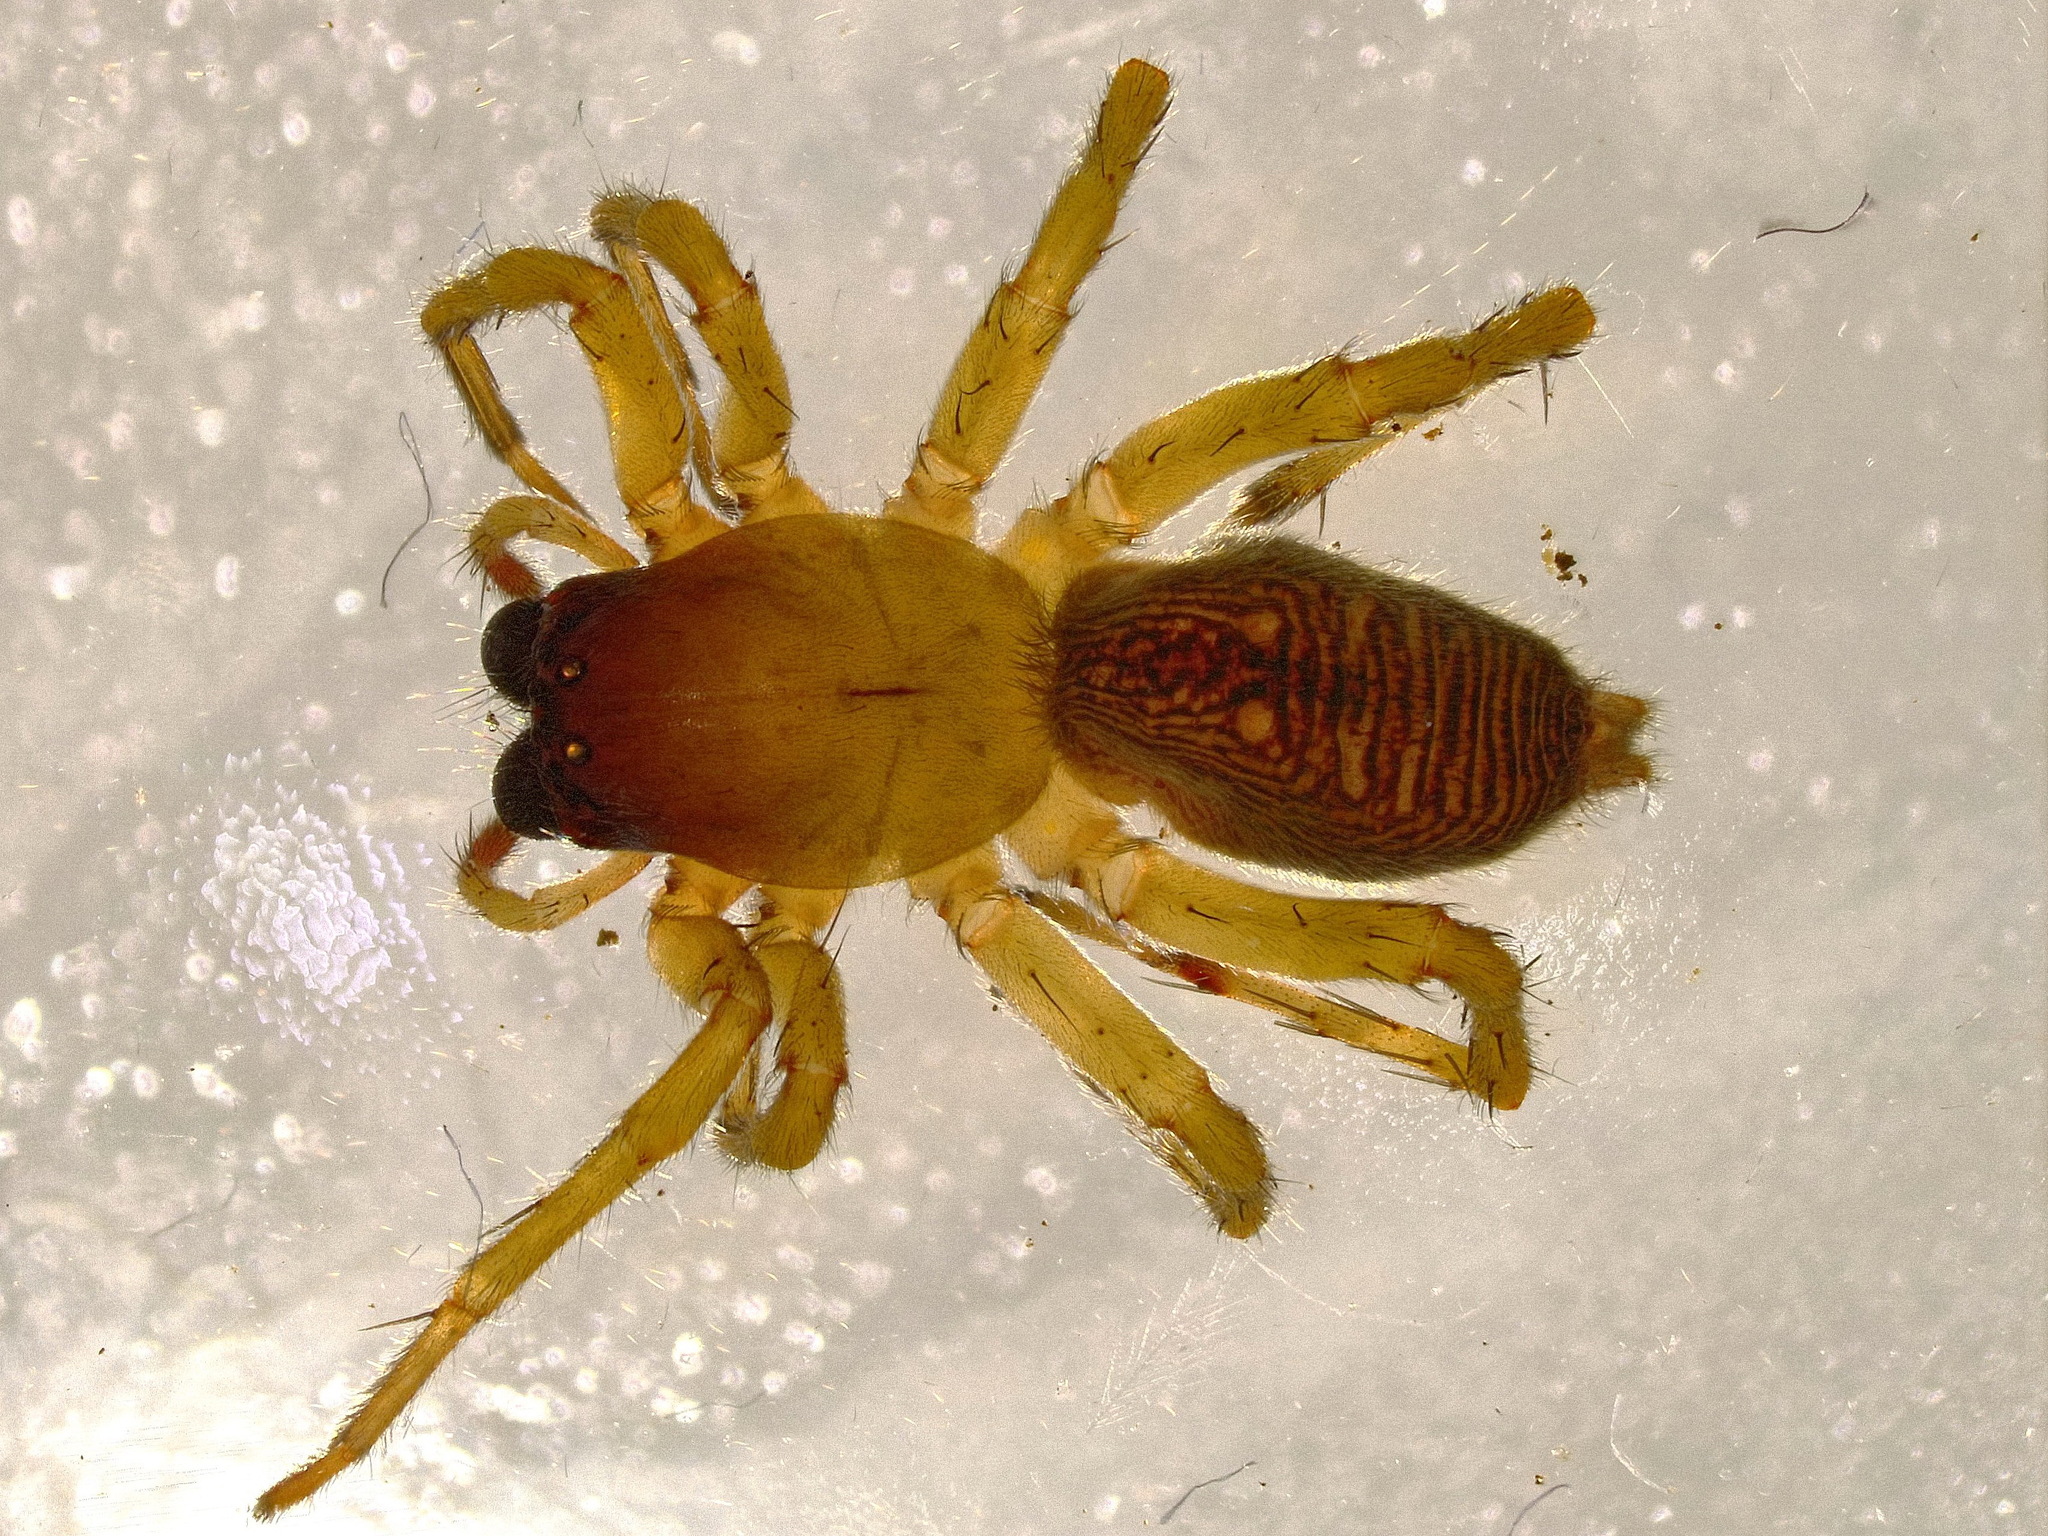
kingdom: Animalia
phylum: Arthropoda
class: Arachnida
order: Araneae
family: Clubionidae
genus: Clubiona
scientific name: Clubiona lutescens
